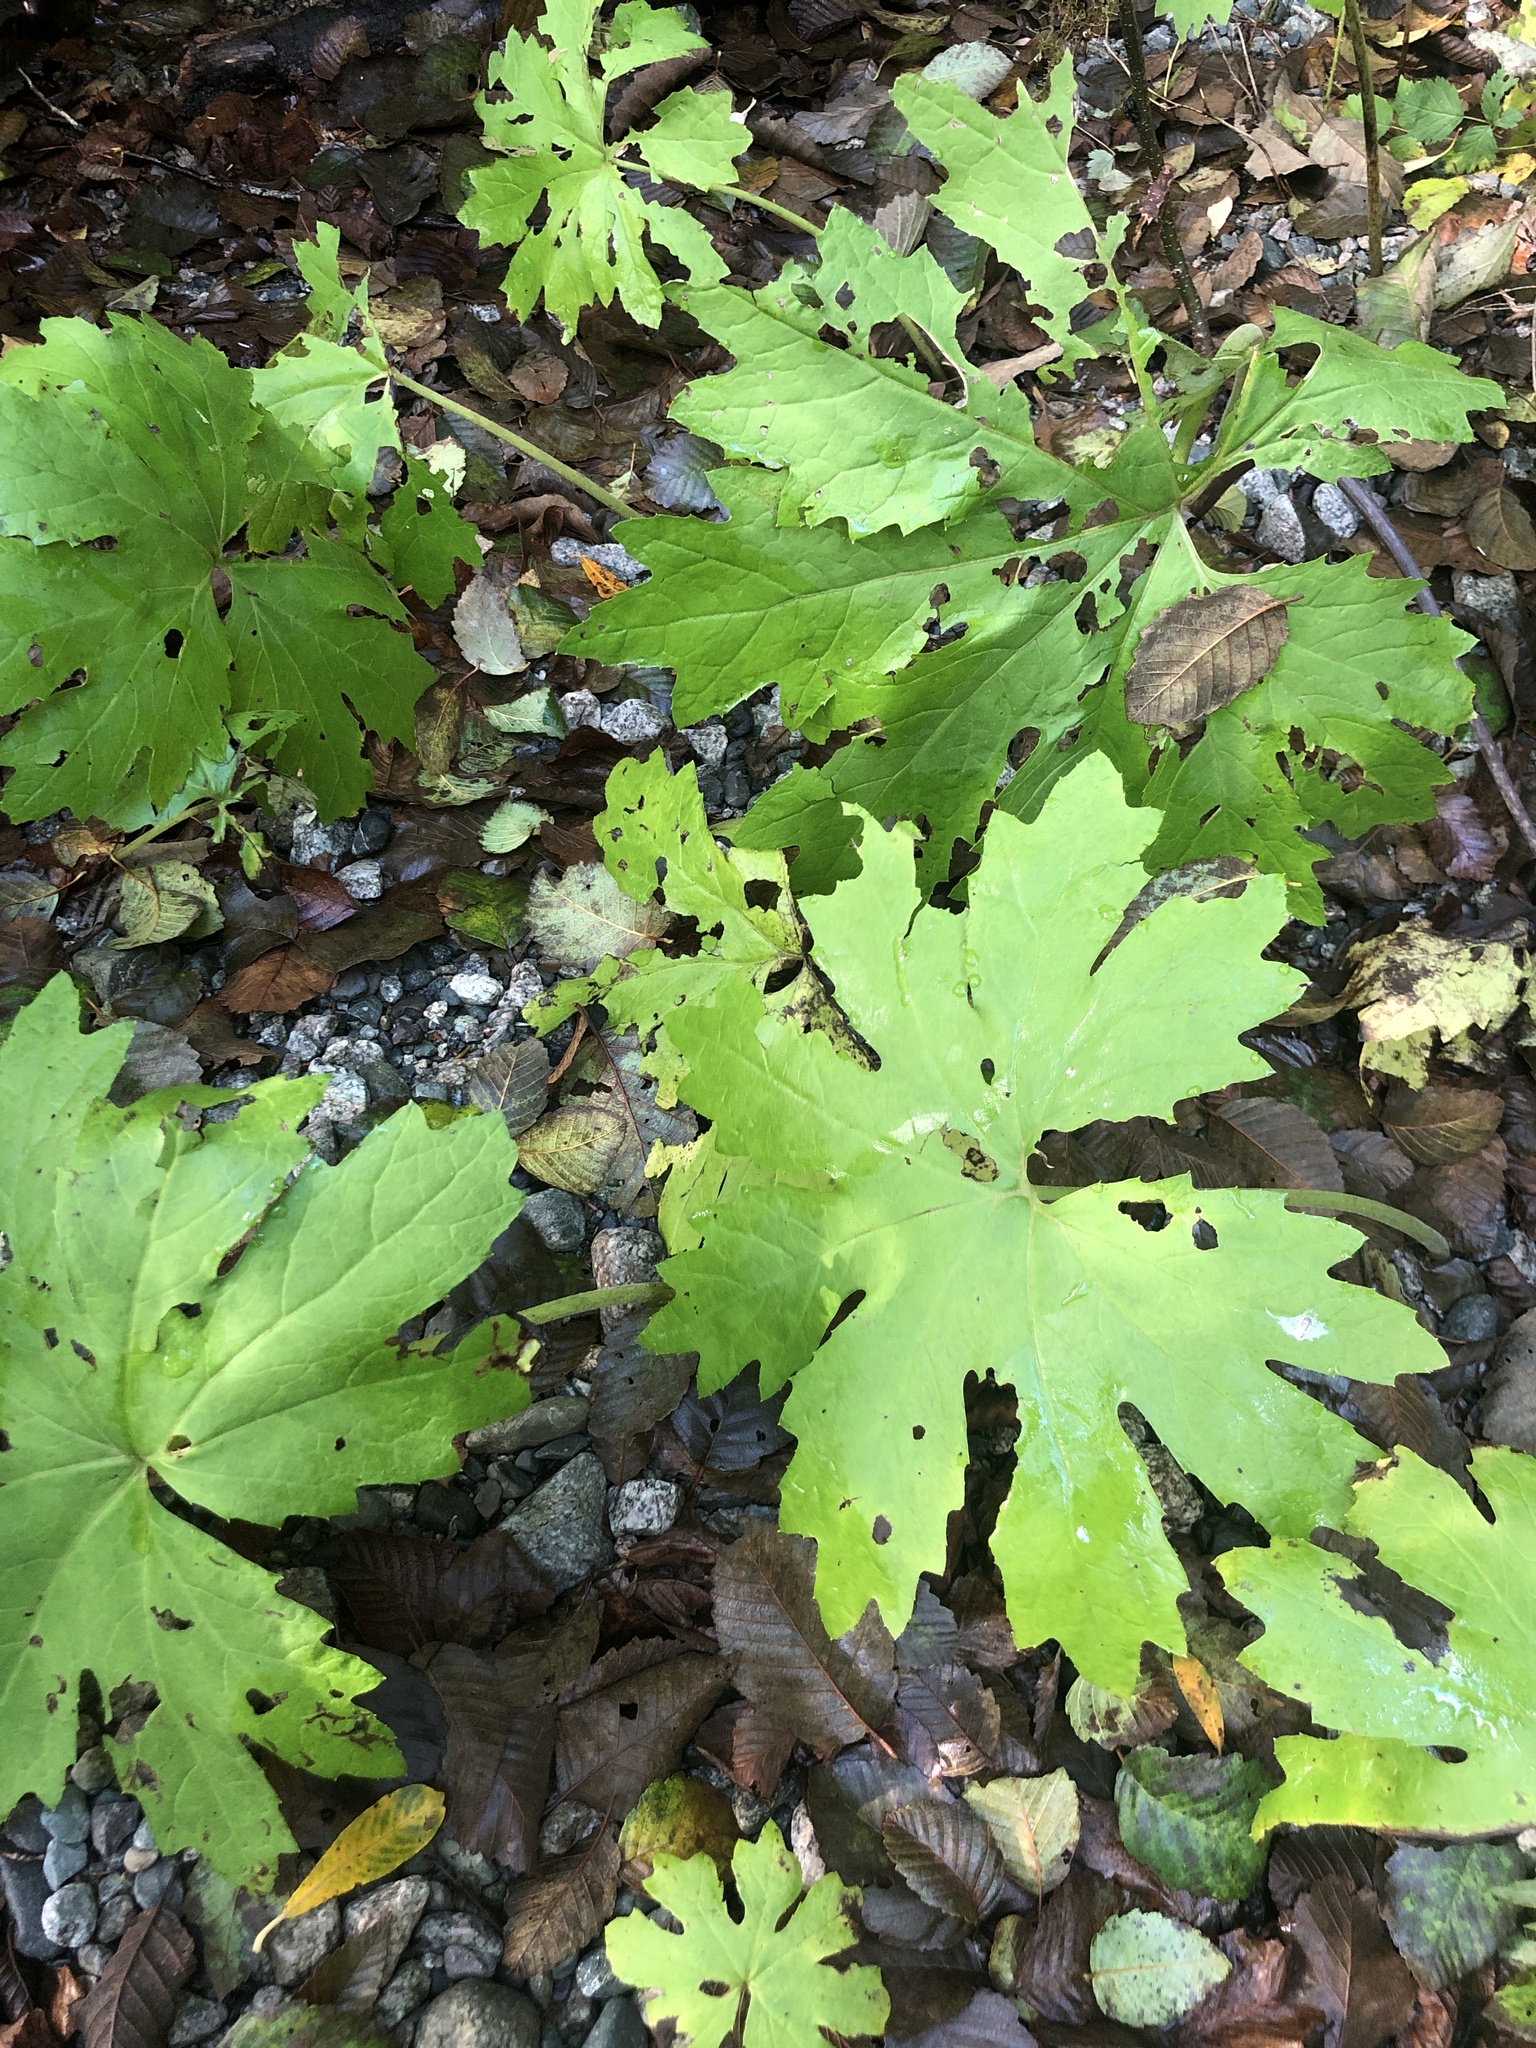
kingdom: Plantae
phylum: Tracheophyta
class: Magnoliopsida
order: Asterales
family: Asteraceae
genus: Petasites
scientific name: Petasites frigidus
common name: Arctic butterbur
